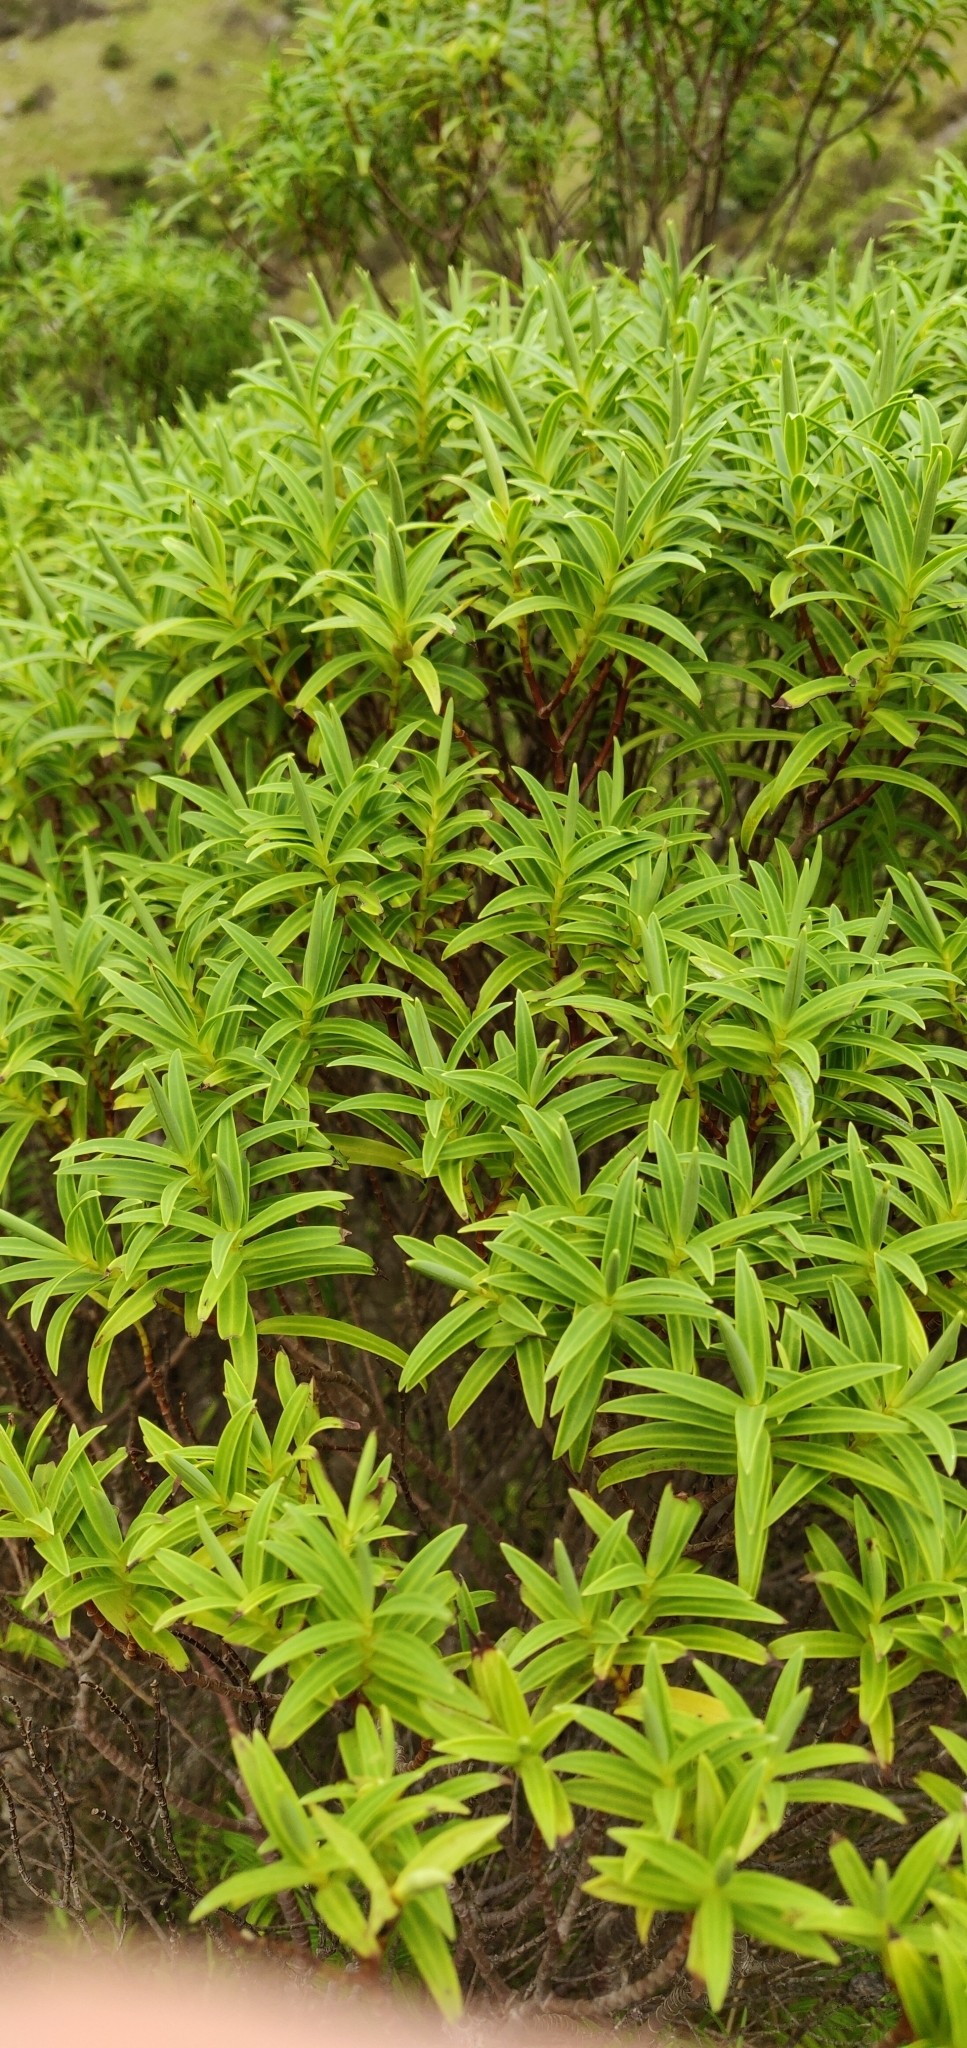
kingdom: Plantae
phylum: Tracheophyta
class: Magnoliopsida
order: Lamiales
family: Plantaginaceae
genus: Veronica
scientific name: Veronica parviflora
